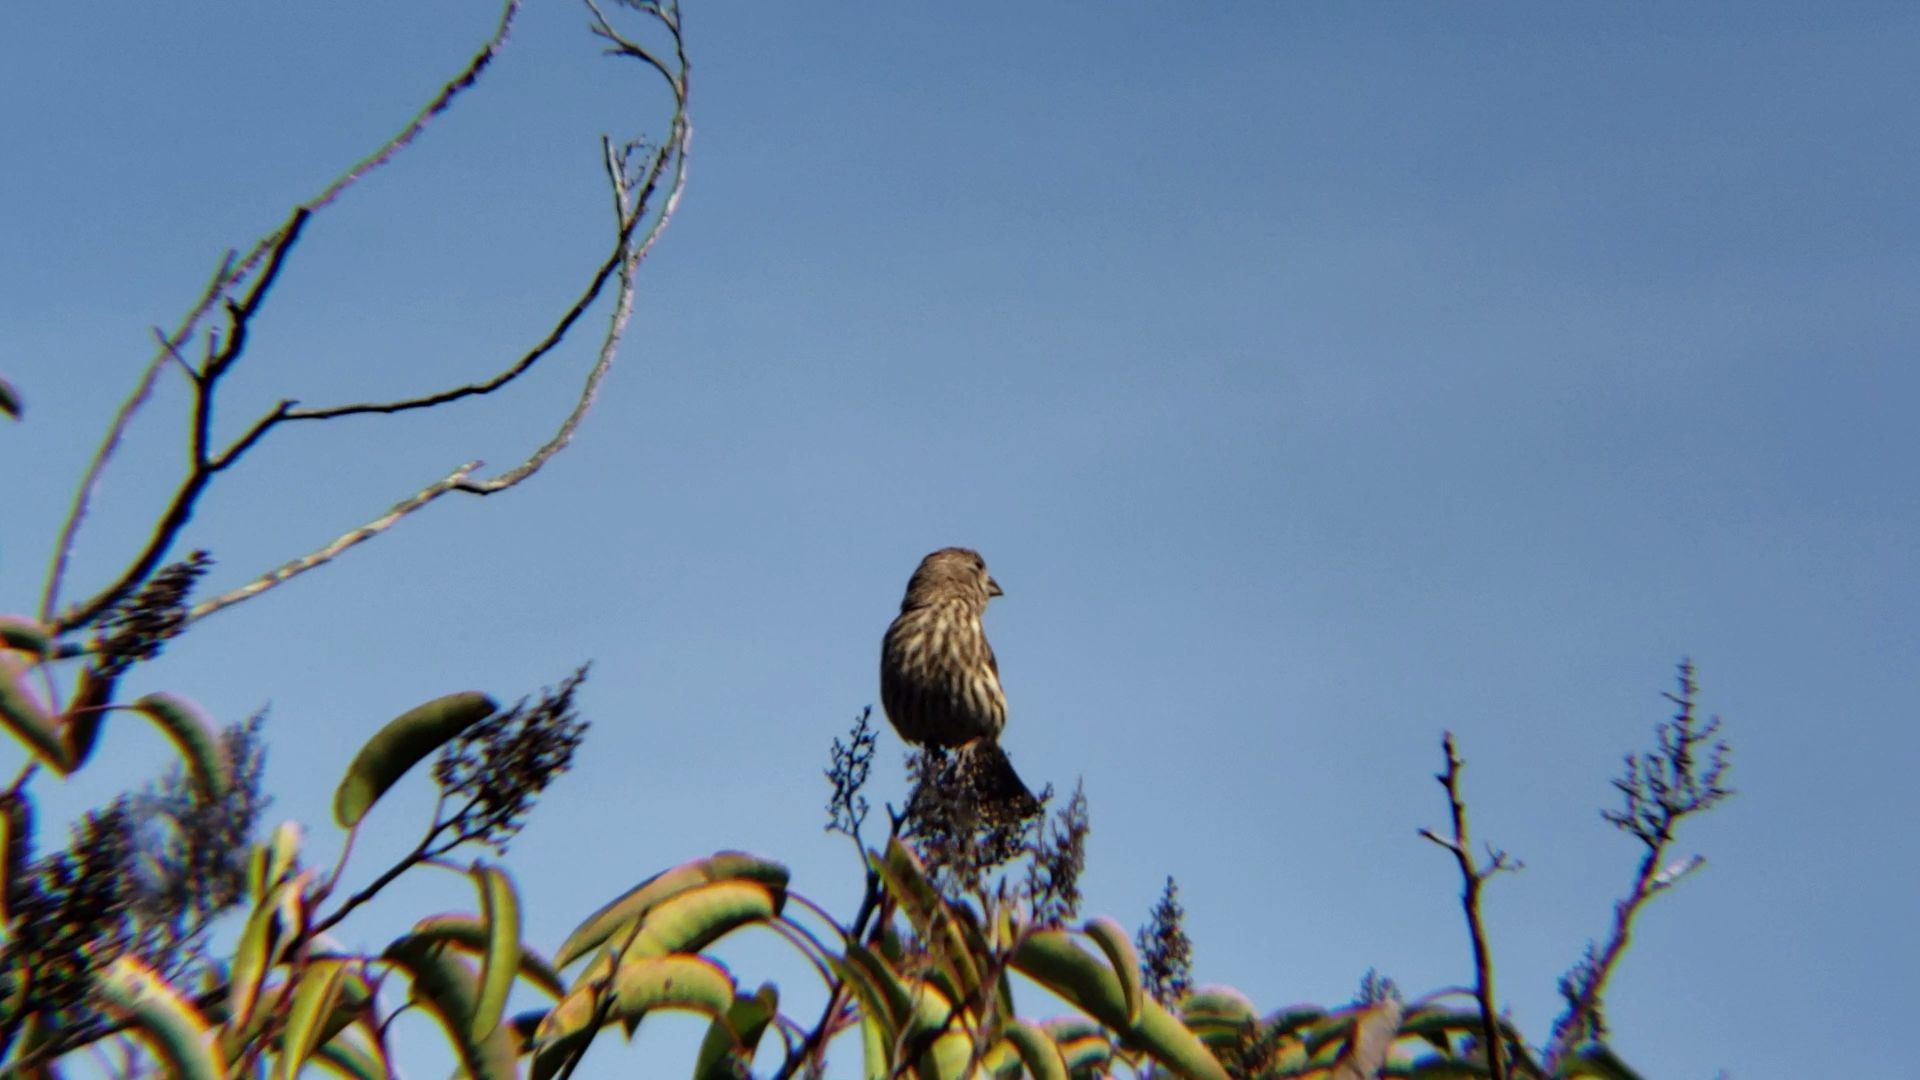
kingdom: Animalia
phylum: Chordata
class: Aves
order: Passeriformes
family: Fringillidae
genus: Haemorhous
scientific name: Haemorhous mexicanus
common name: House finch
